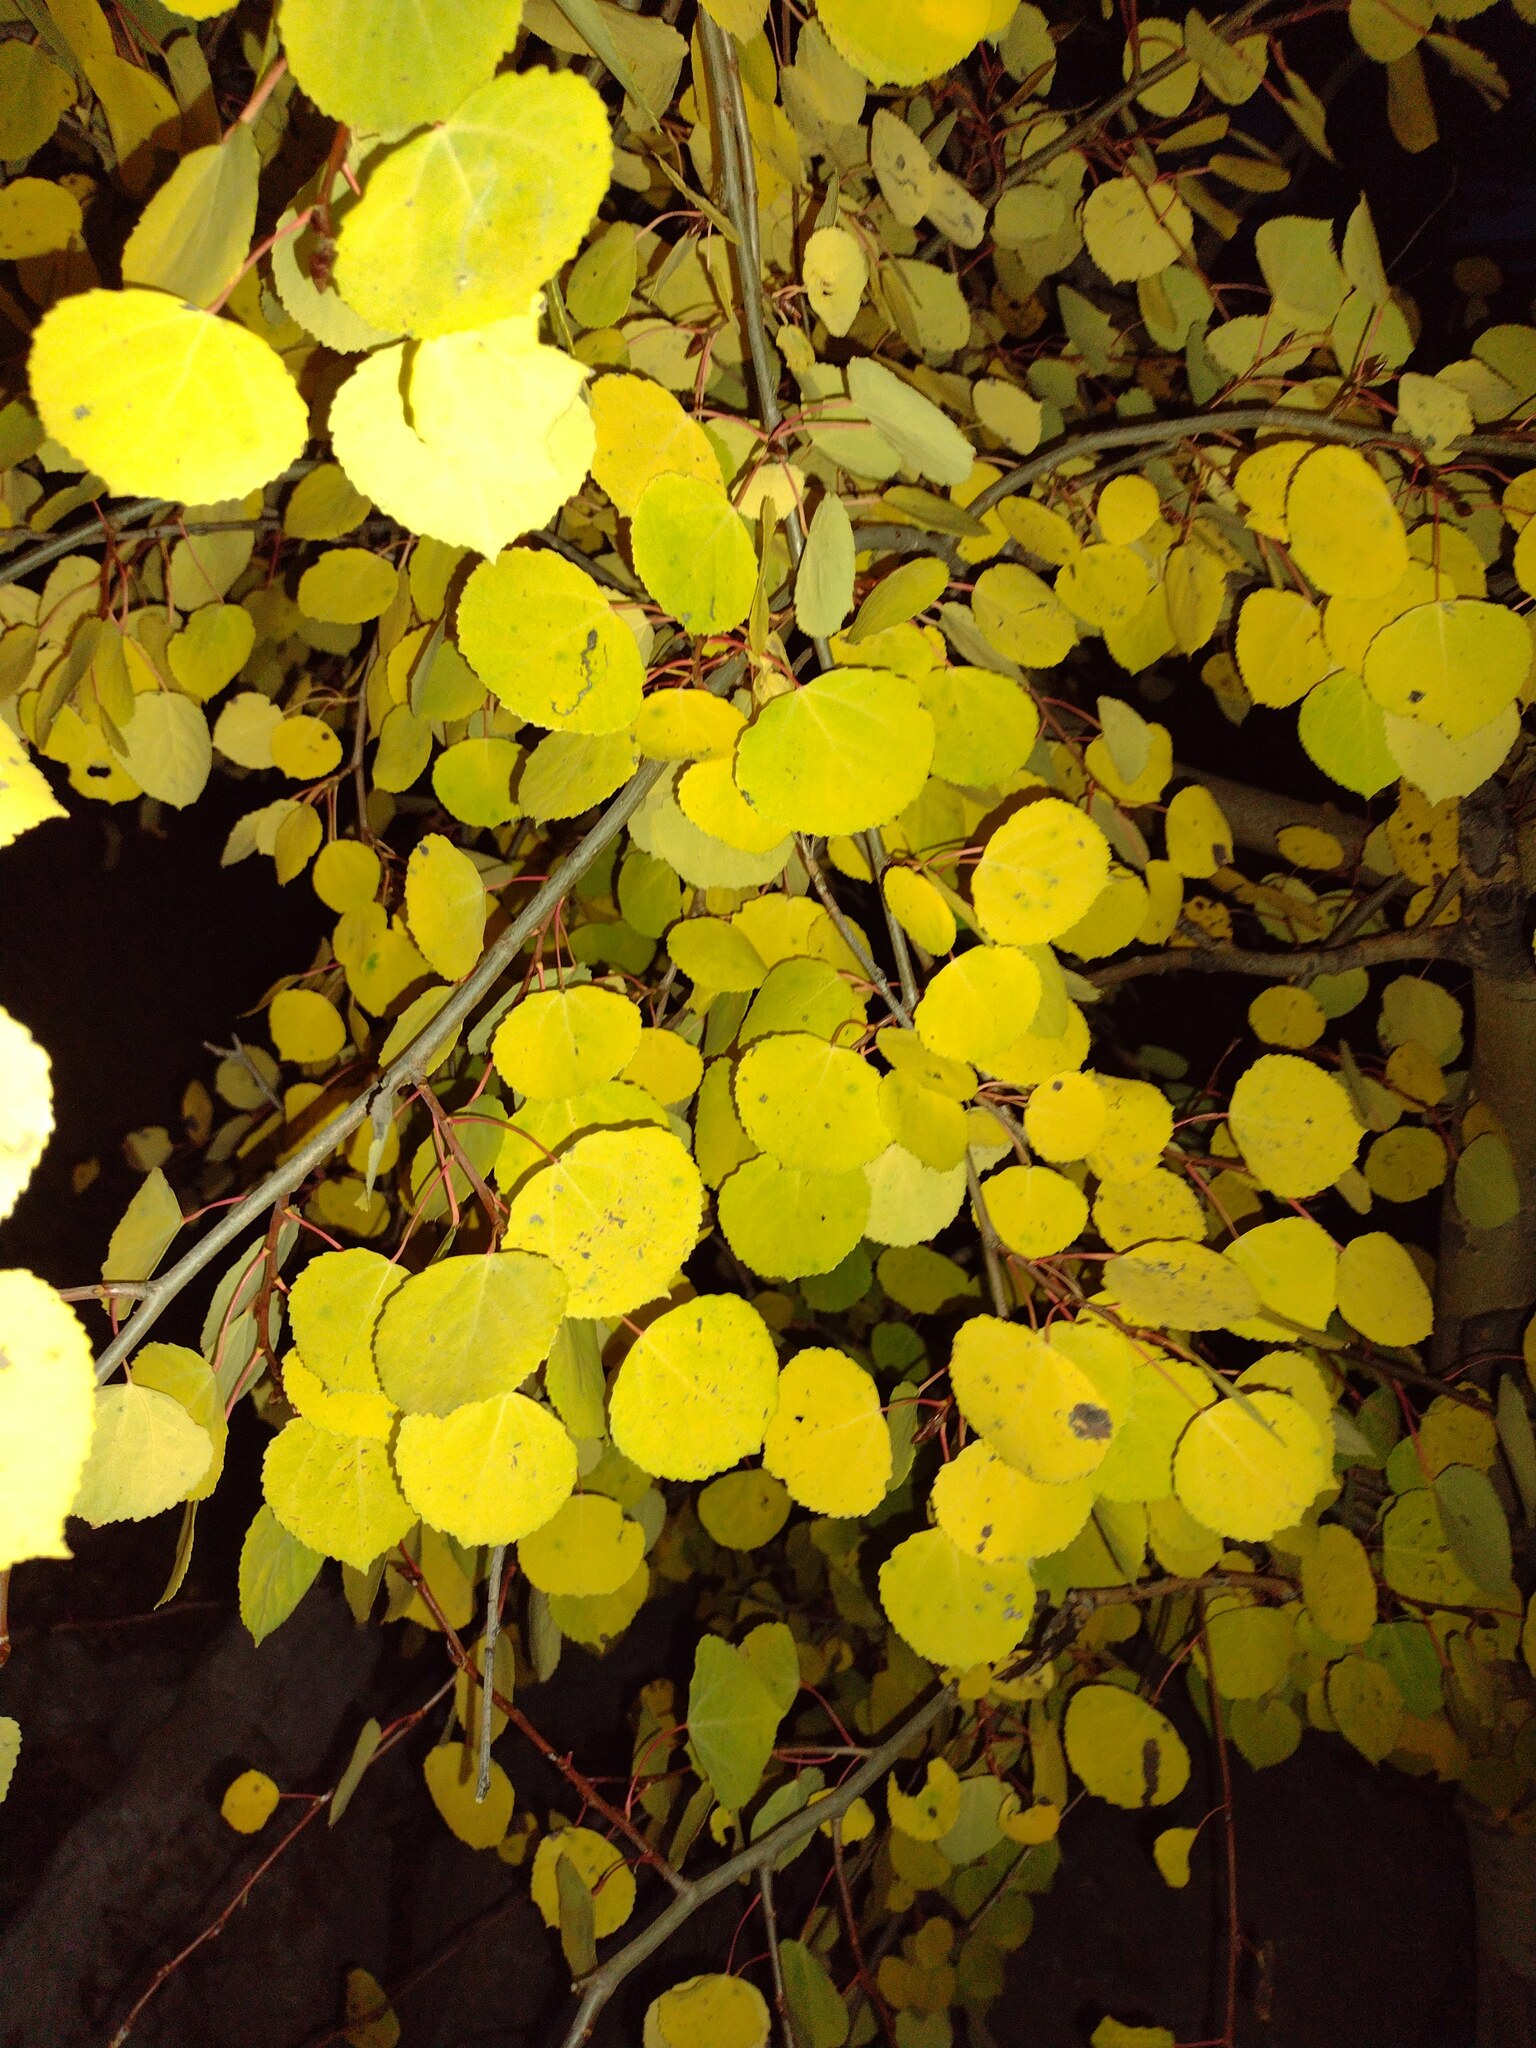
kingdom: Plantae
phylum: Tracheophyta
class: Magnoliopsida
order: Malpighiales
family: Salicaceae
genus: Populus
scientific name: Populus tremuloides
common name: Quaking aspen
